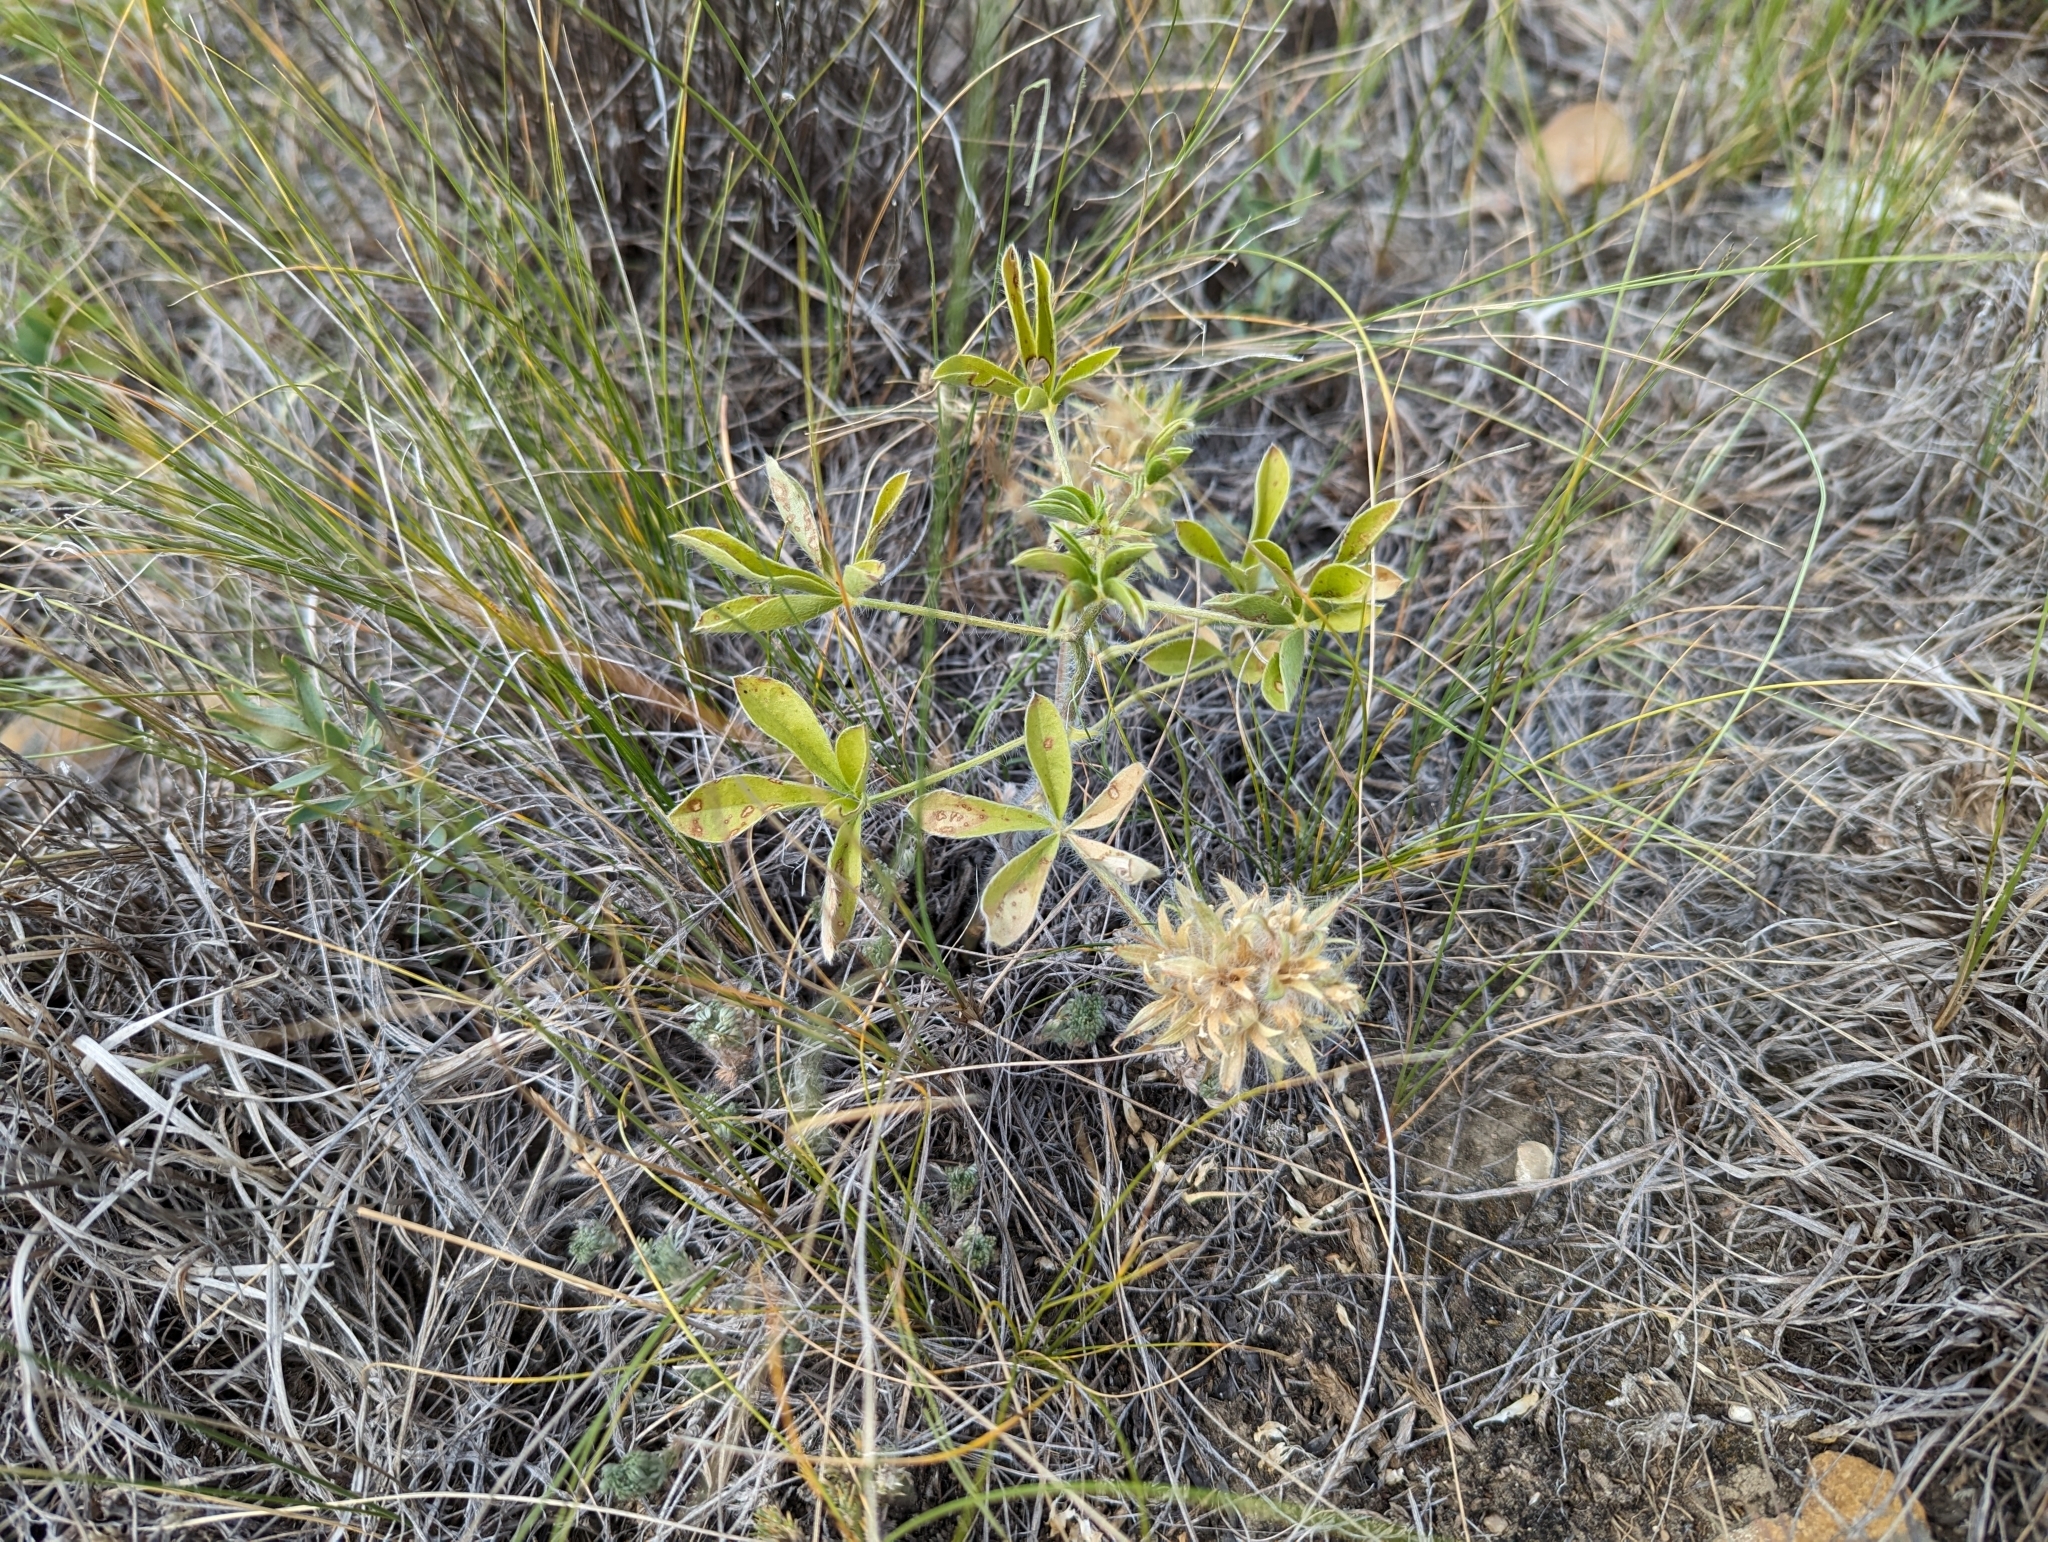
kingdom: Plantae
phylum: Tracheophyta
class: Magnoliopsida
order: Fabales
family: Fabaceae
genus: Pediomelum
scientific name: Pediomelum esculentum
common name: Indian-turnip
